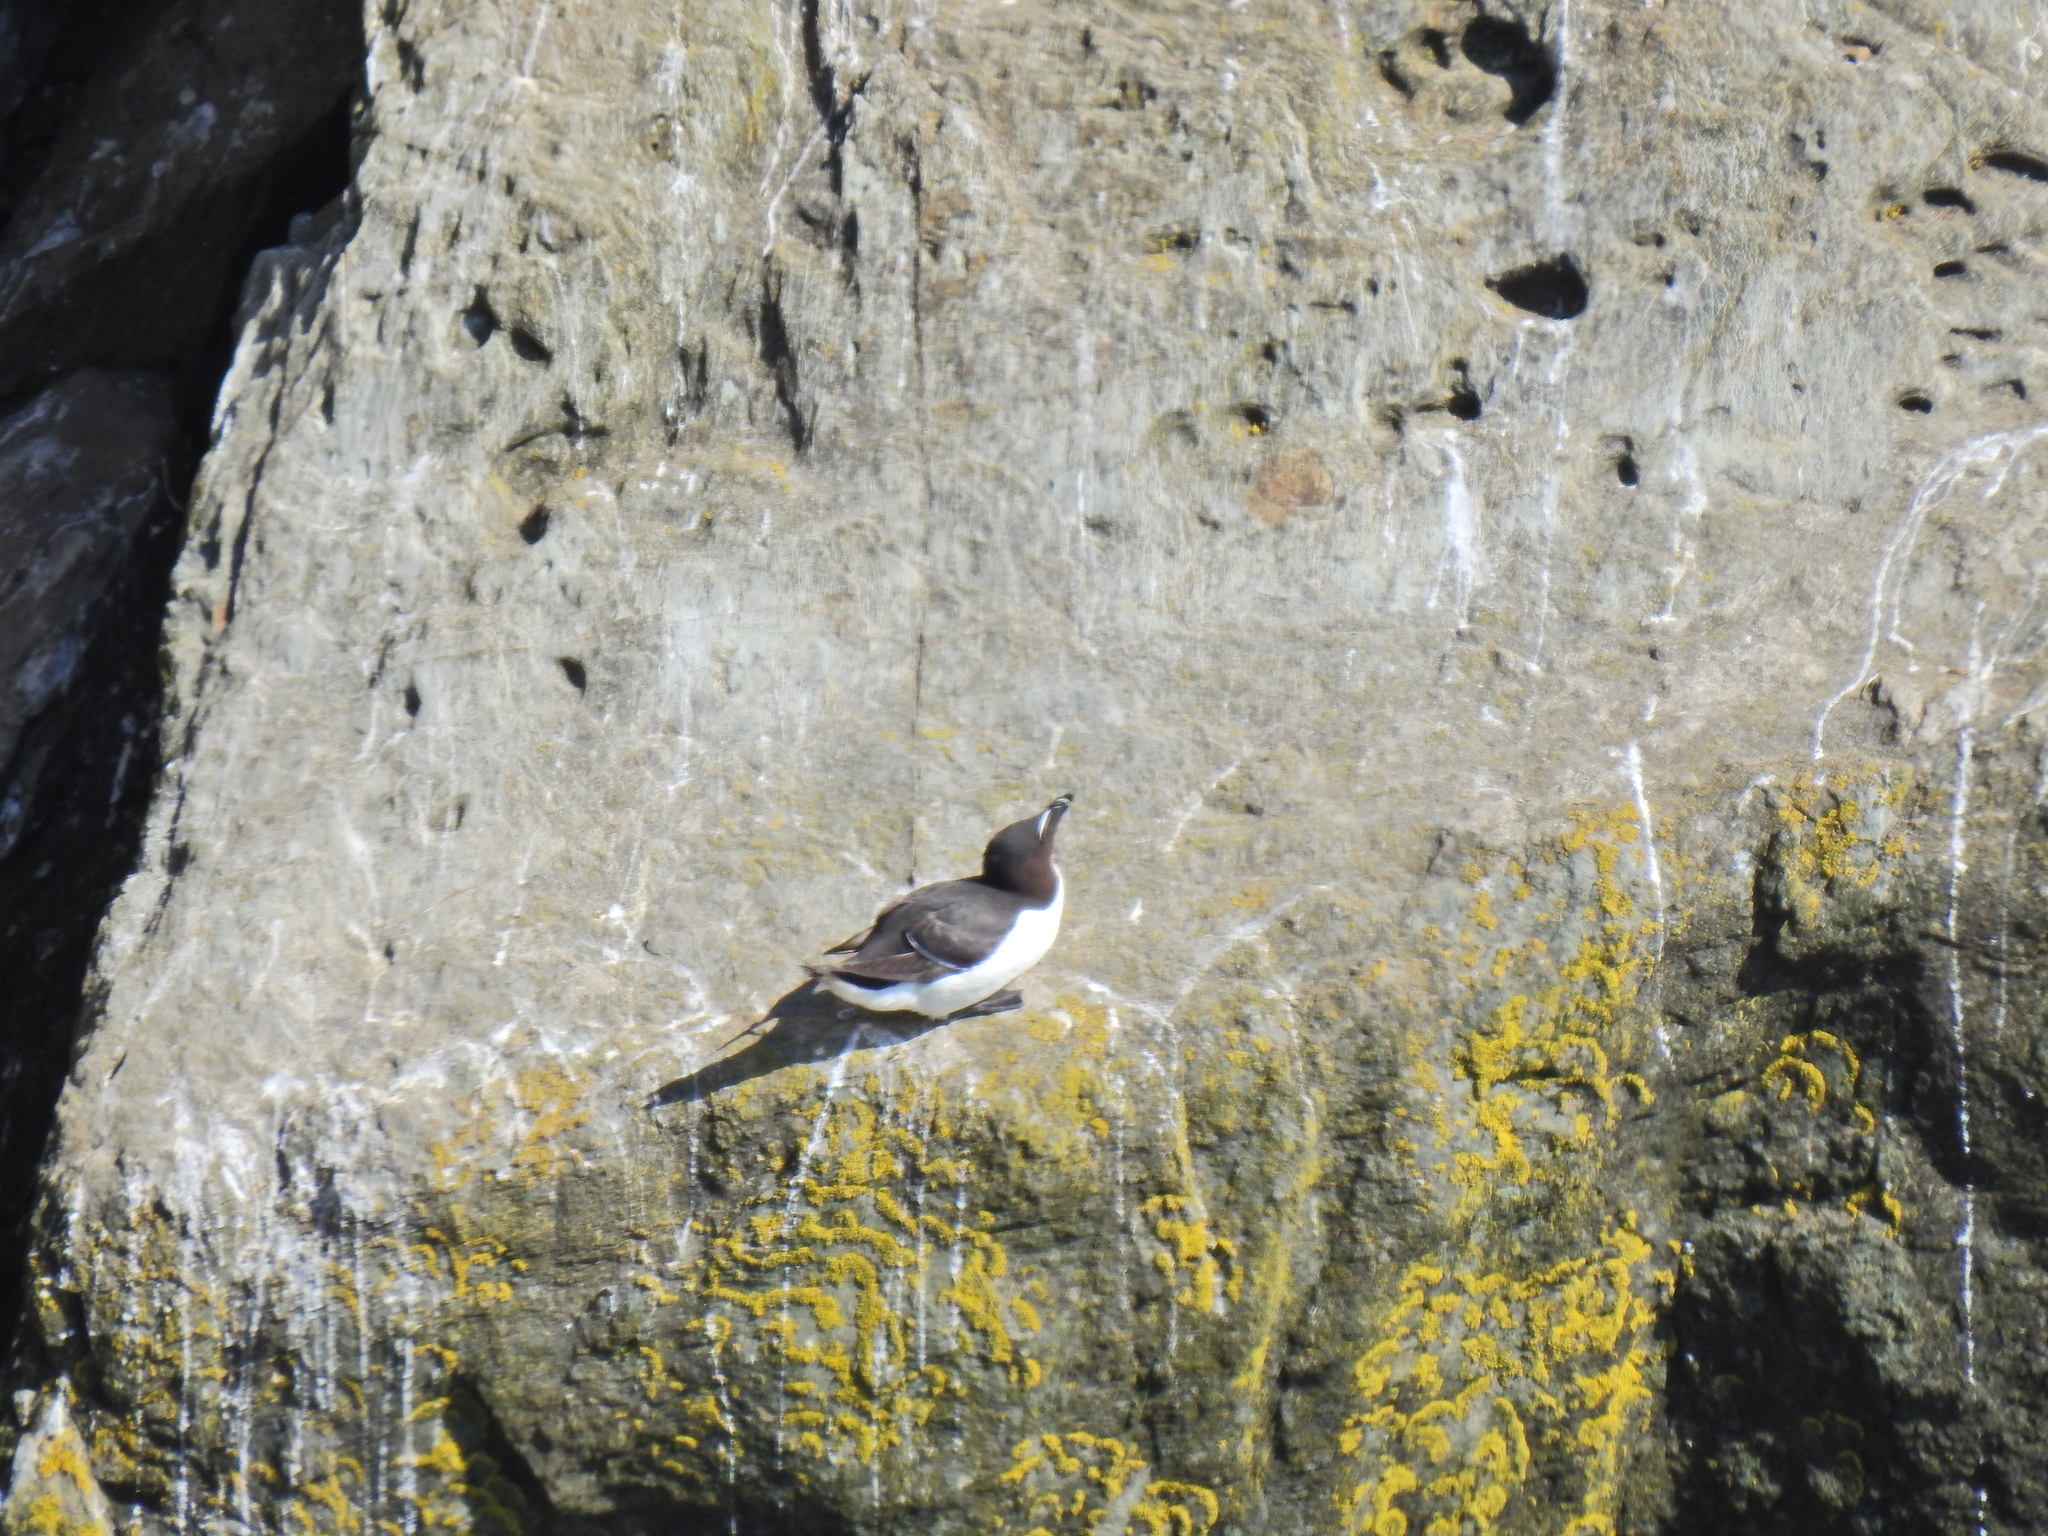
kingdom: Animalia
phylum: Chordata
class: Aves
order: Charadriiformes
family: Alcidae
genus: Alca
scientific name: Alca torda
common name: Razorbill
